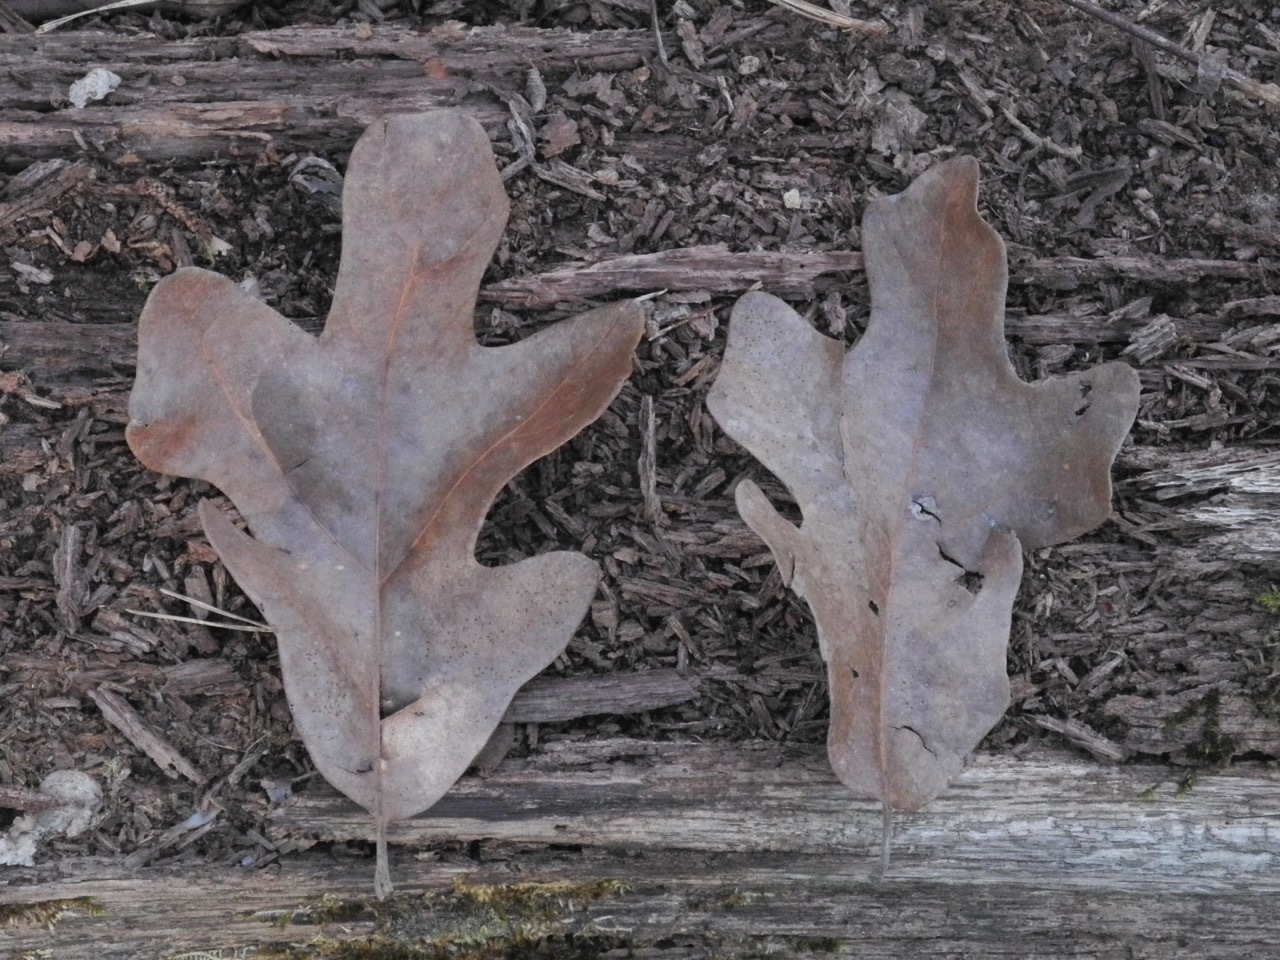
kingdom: Plantae
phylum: Tracheophyta
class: Magnoliopsida
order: Fagales
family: Fagaceae
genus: Quercus
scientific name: Quercus stellata
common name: Post oak
